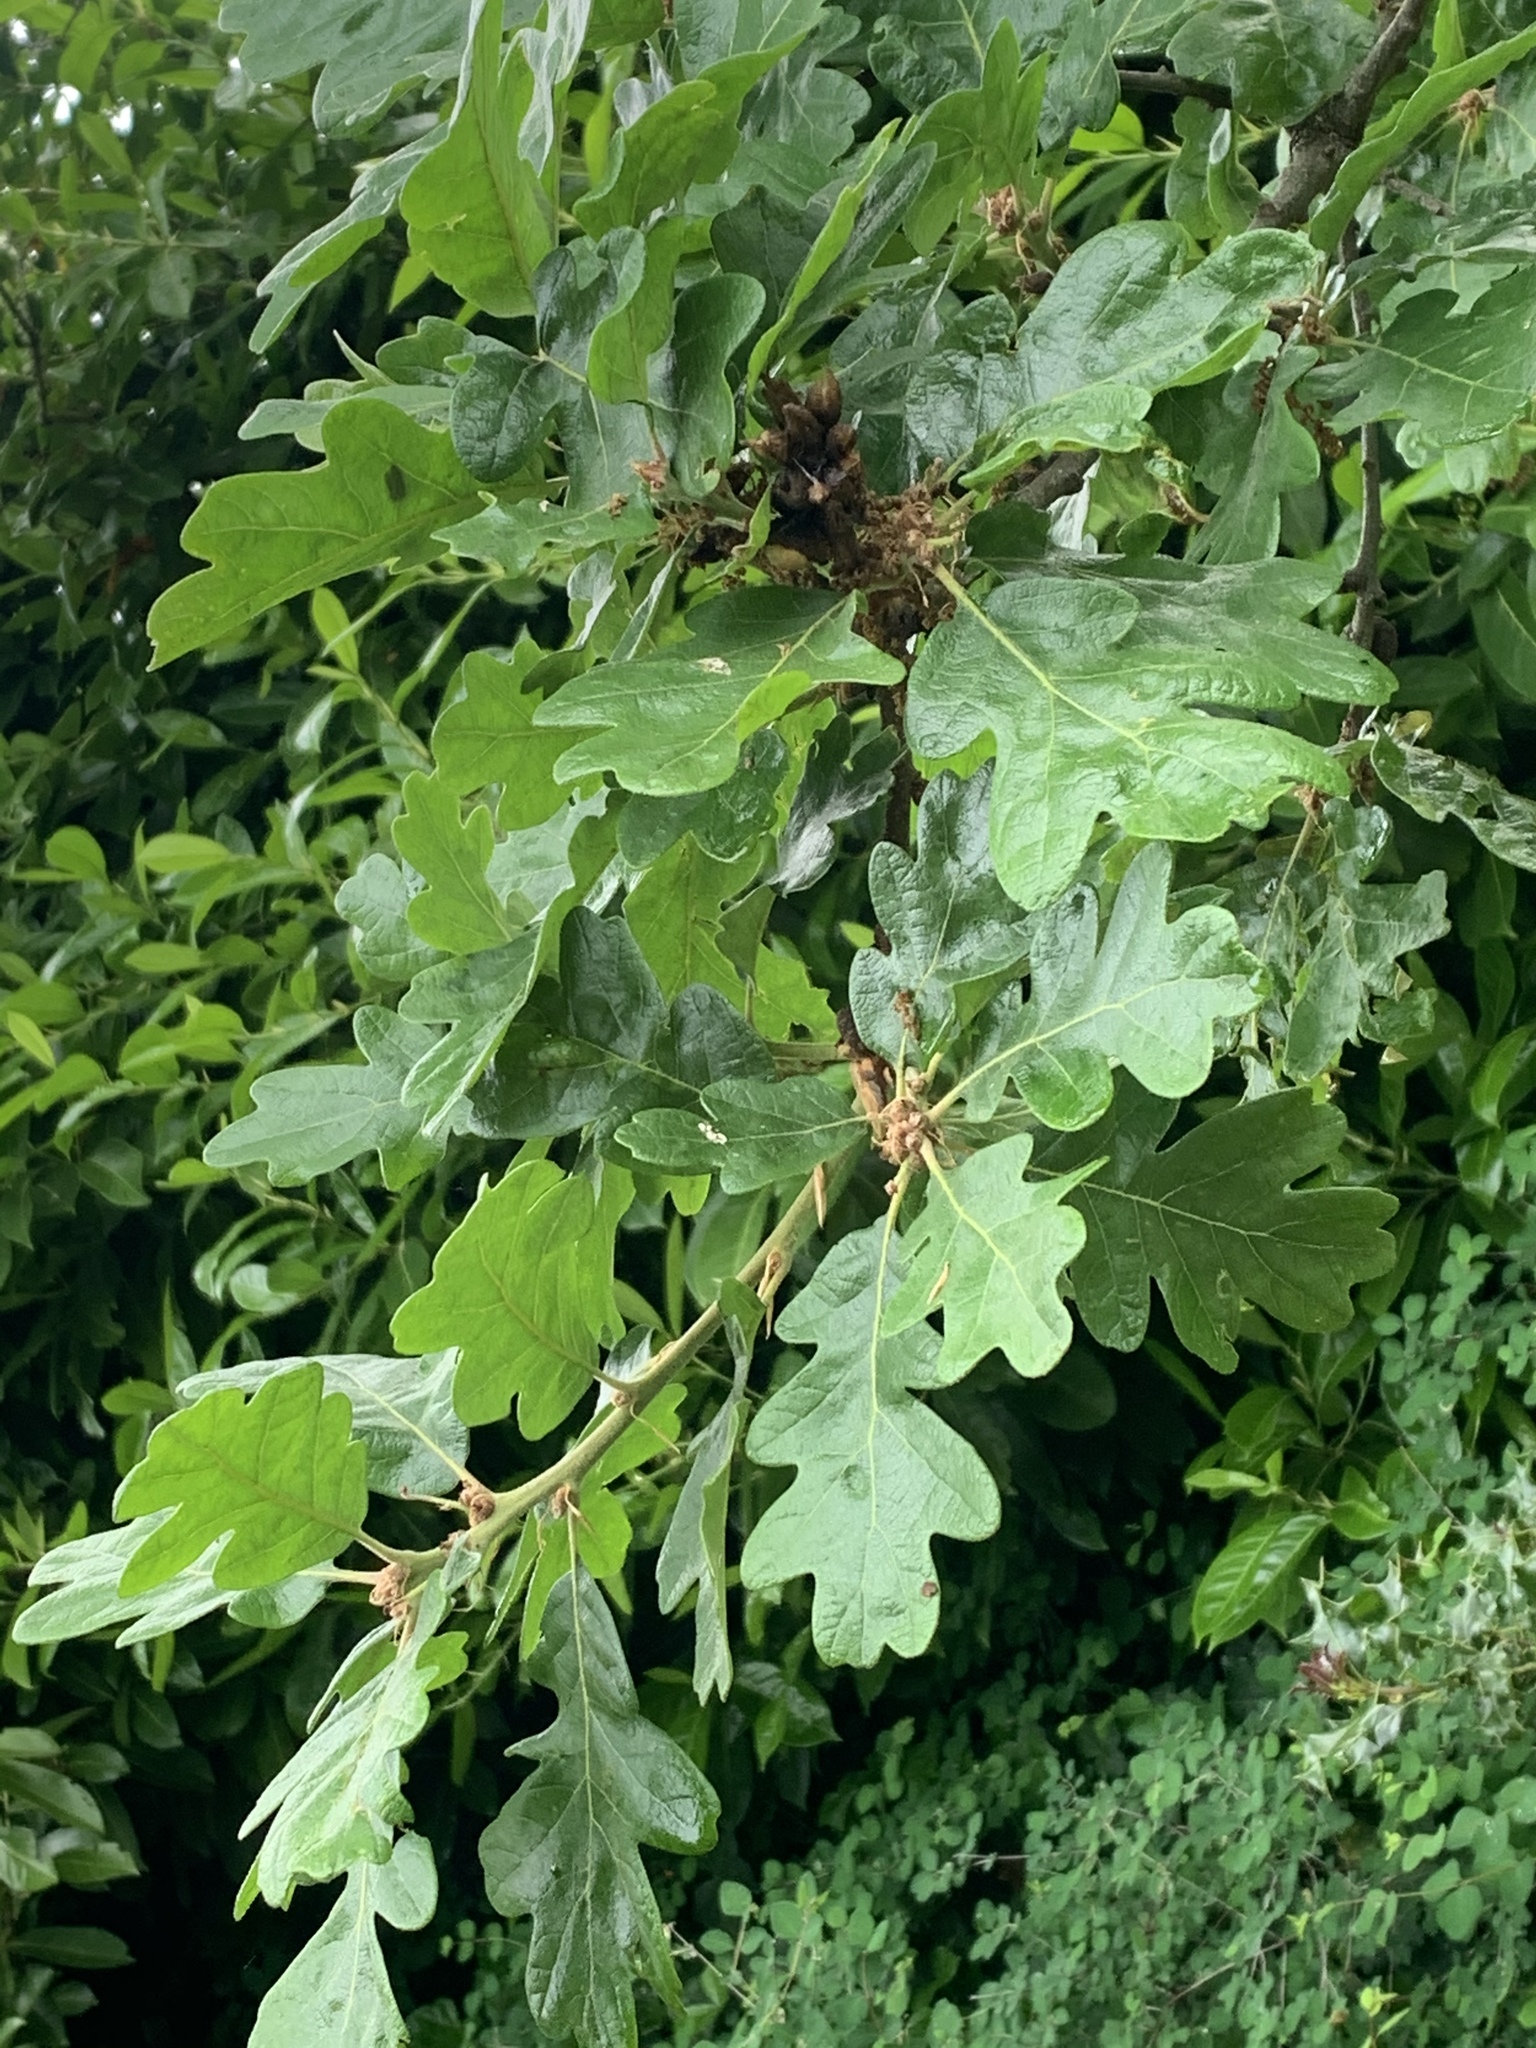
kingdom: Plantae
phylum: Tracheophyta
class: Magnoliopsida
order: Fagales
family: Fagaceae
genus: Quercus
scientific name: Quercus garryana
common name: Garry oak
